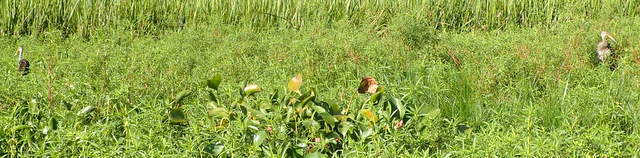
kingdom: Animalia
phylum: Chordata
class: Aves
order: Gruiformes
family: Aramidae
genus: Aramus
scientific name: Aramus guarauna
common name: Limpkin
